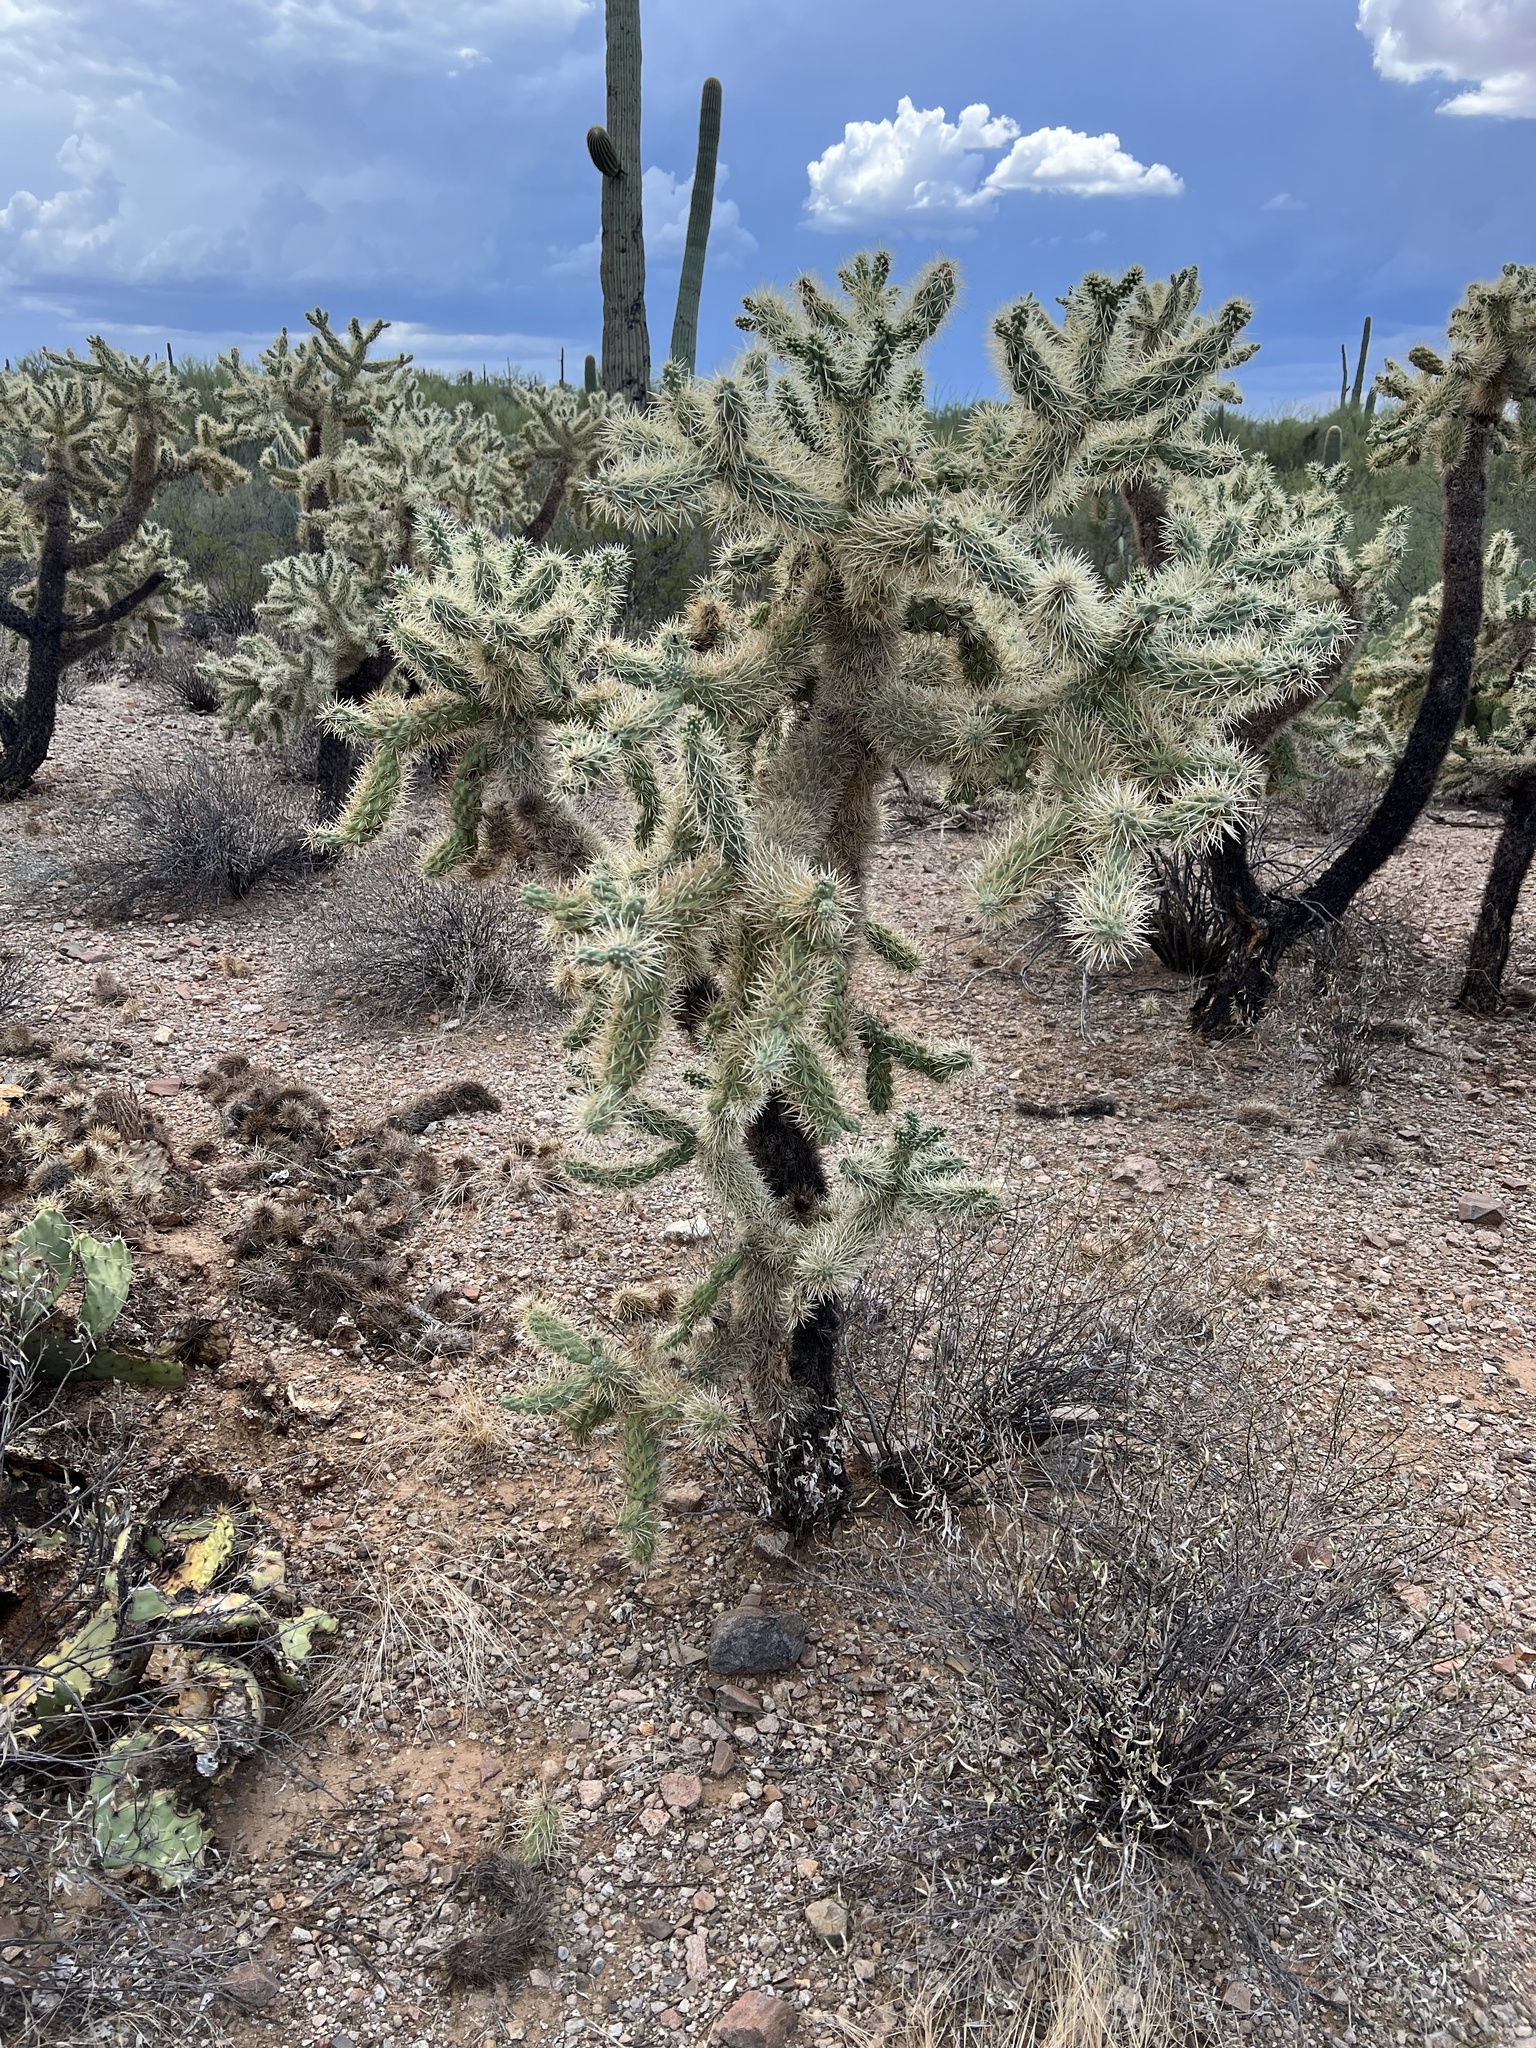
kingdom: Plantae
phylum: Tracheophyta
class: Magnoliopsida
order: Caryophyllales
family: Cactaceae
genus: Cylindropuntia
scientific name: Cylindropuntia fulgida
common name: Jumping cholla
